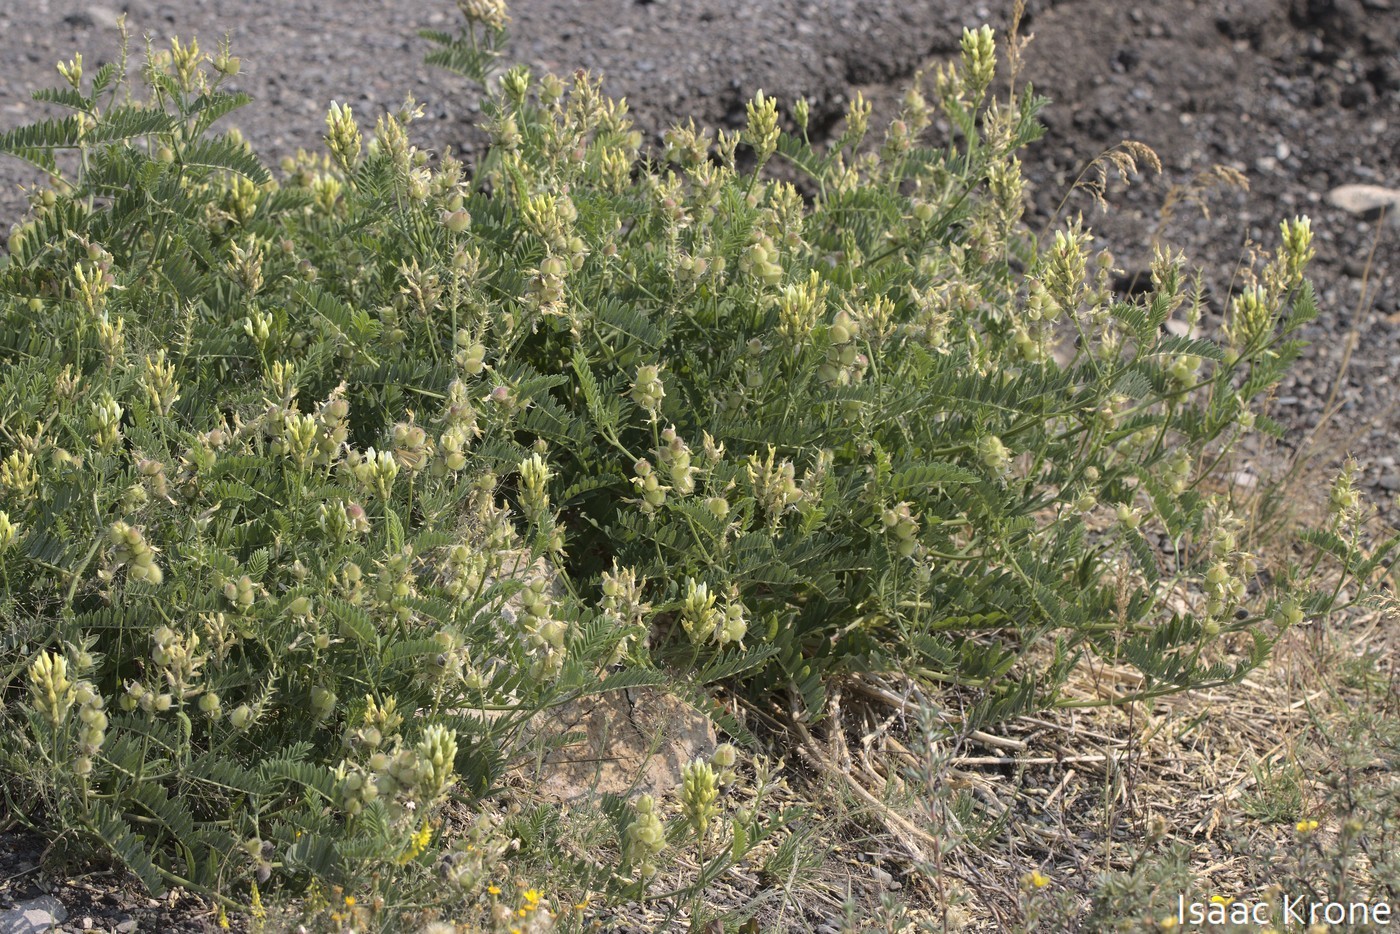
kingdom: Plantae
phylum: Tracheophyta
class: Magnoliopsida
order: Fabales
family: Fabaceae
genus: Astragalus
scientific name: Astragalus cicer
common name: Chick-pea milk-vetch
